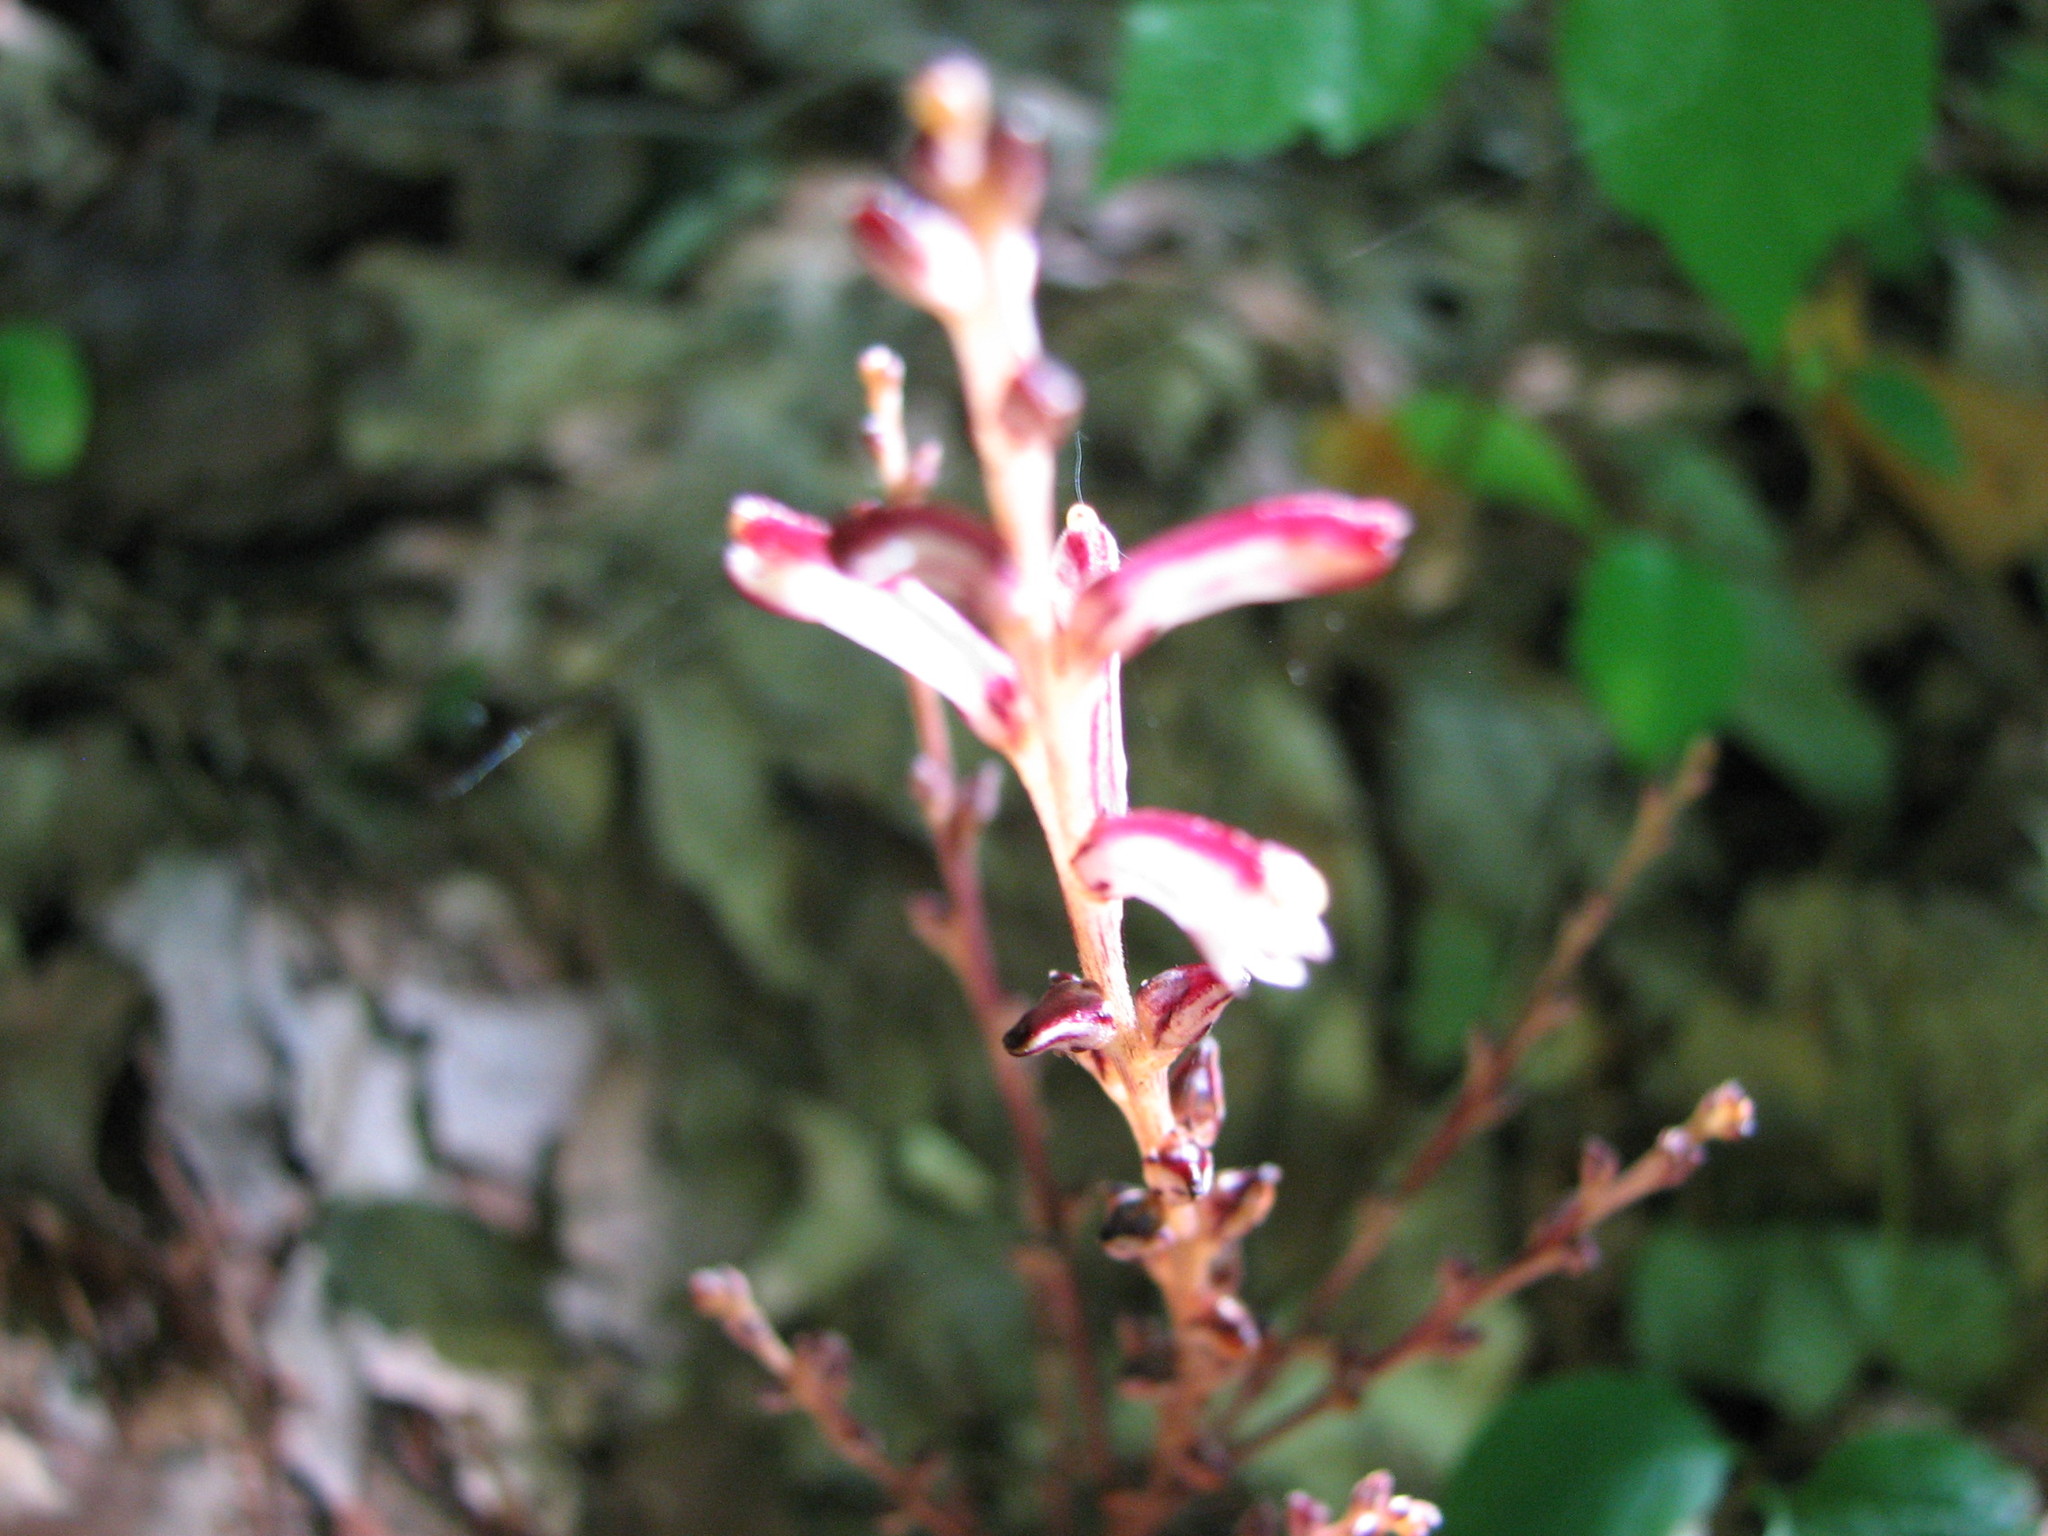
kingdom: Plantae
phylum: Tracheophyta
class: Magnoliopsida
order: Lamiales
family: Orobanchaceae
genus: Epifagus
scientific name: Epifagus virginiana
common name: Beechdrops
